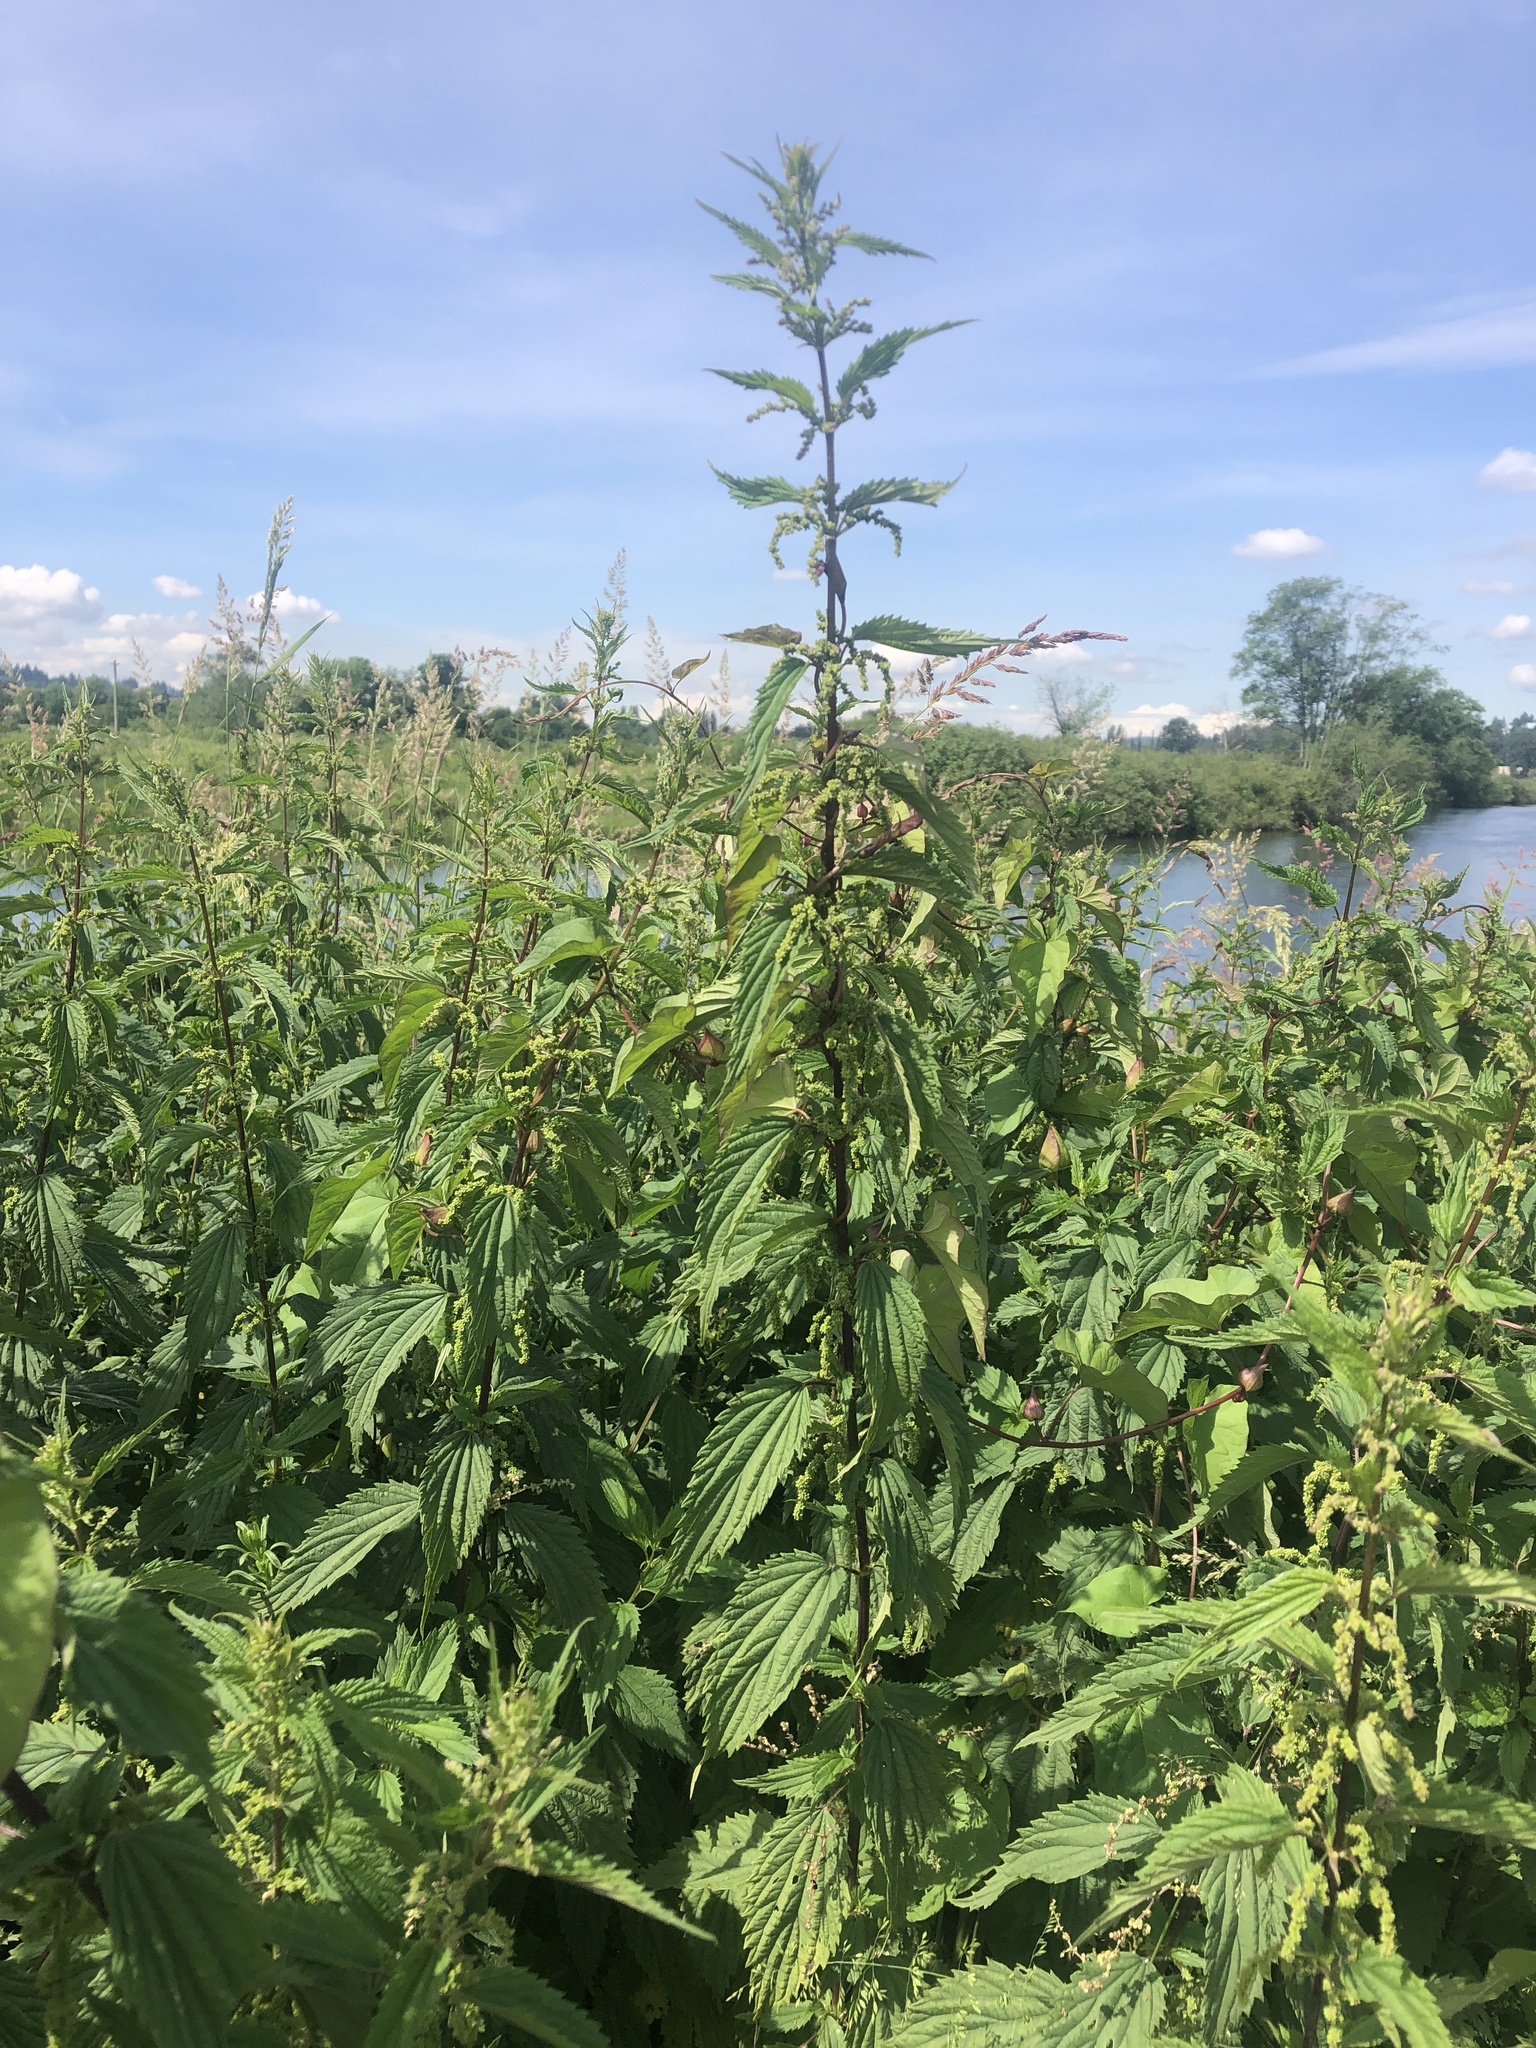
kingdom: Plantae
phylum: Tracheophyta
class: Magnoliopsida
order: Rosales
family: Urticaceae
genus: Urtica
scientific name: Urtica dioica
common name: Common nettle
